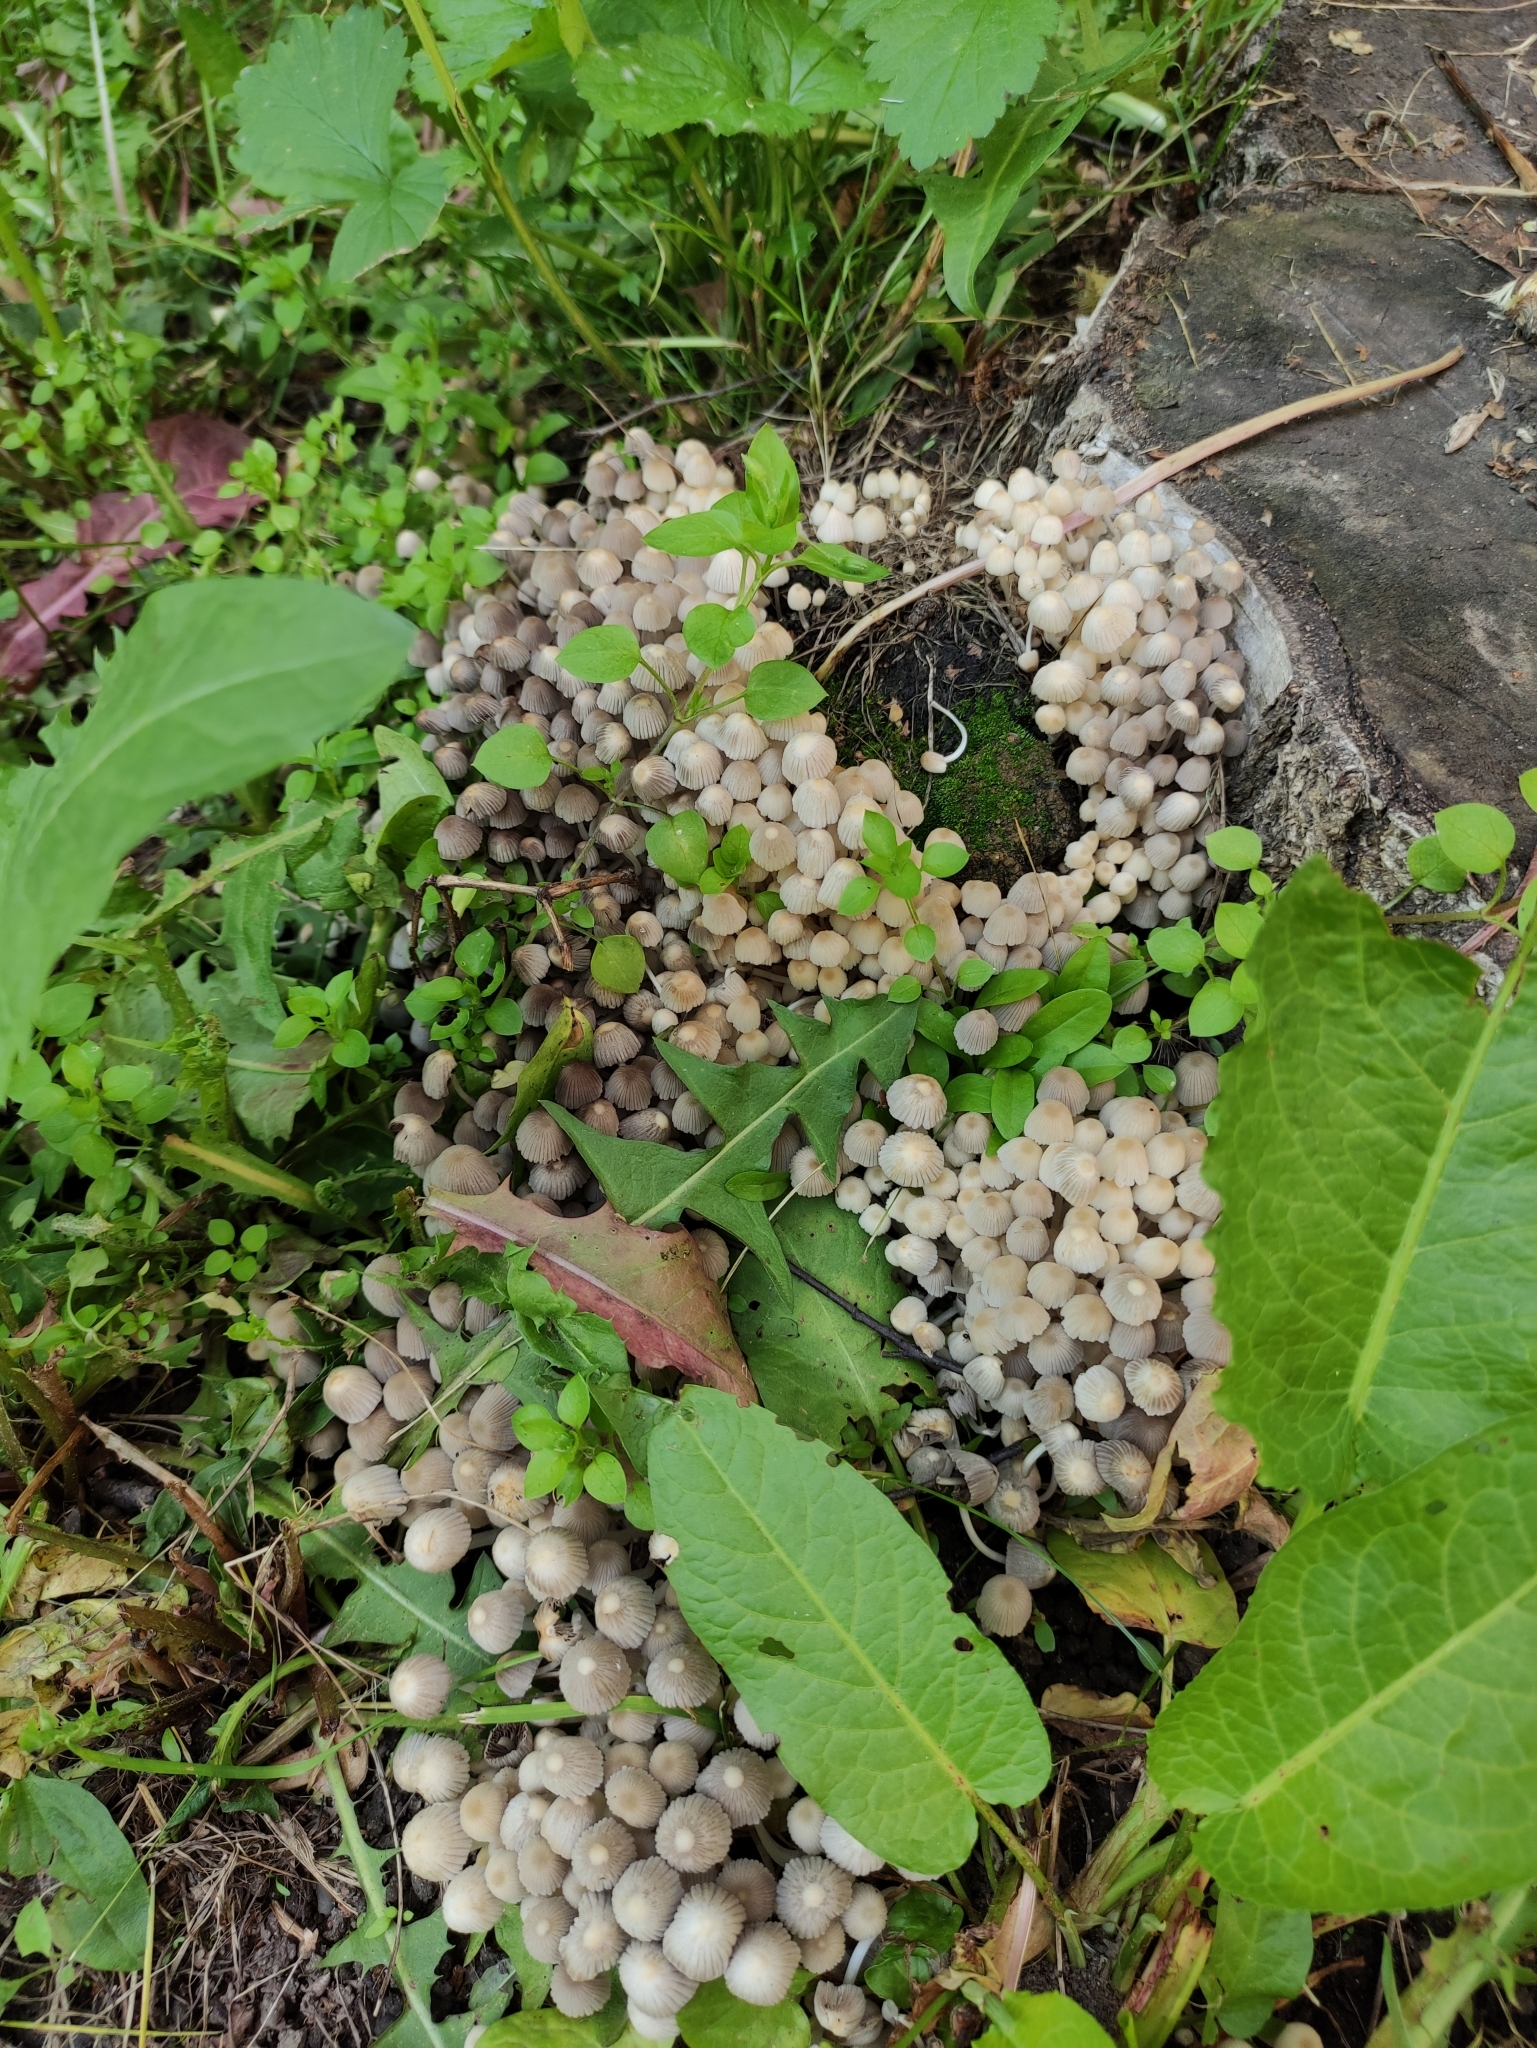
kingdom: Fungi
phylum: Basidiomycota
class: Agaricomycetes
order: Agaricales
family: Psathyrellaceae
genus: Coprinellus
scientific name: Coprinellus disseminatus
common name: Fairies' bonnets
